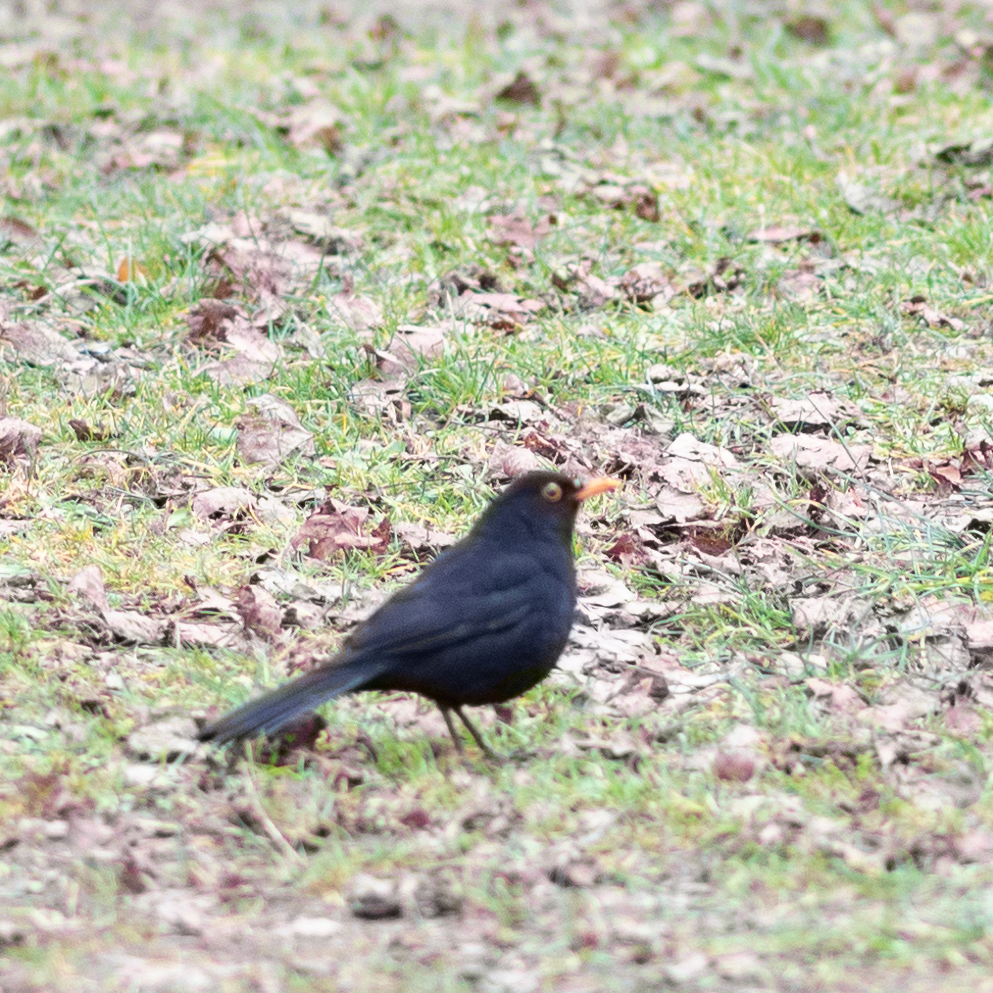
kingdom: Animalia
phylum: Chordata
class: Aves
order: Passeriformes
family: Turdidae
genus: Turdus
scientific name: Turdus merula
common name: Common blackbird
